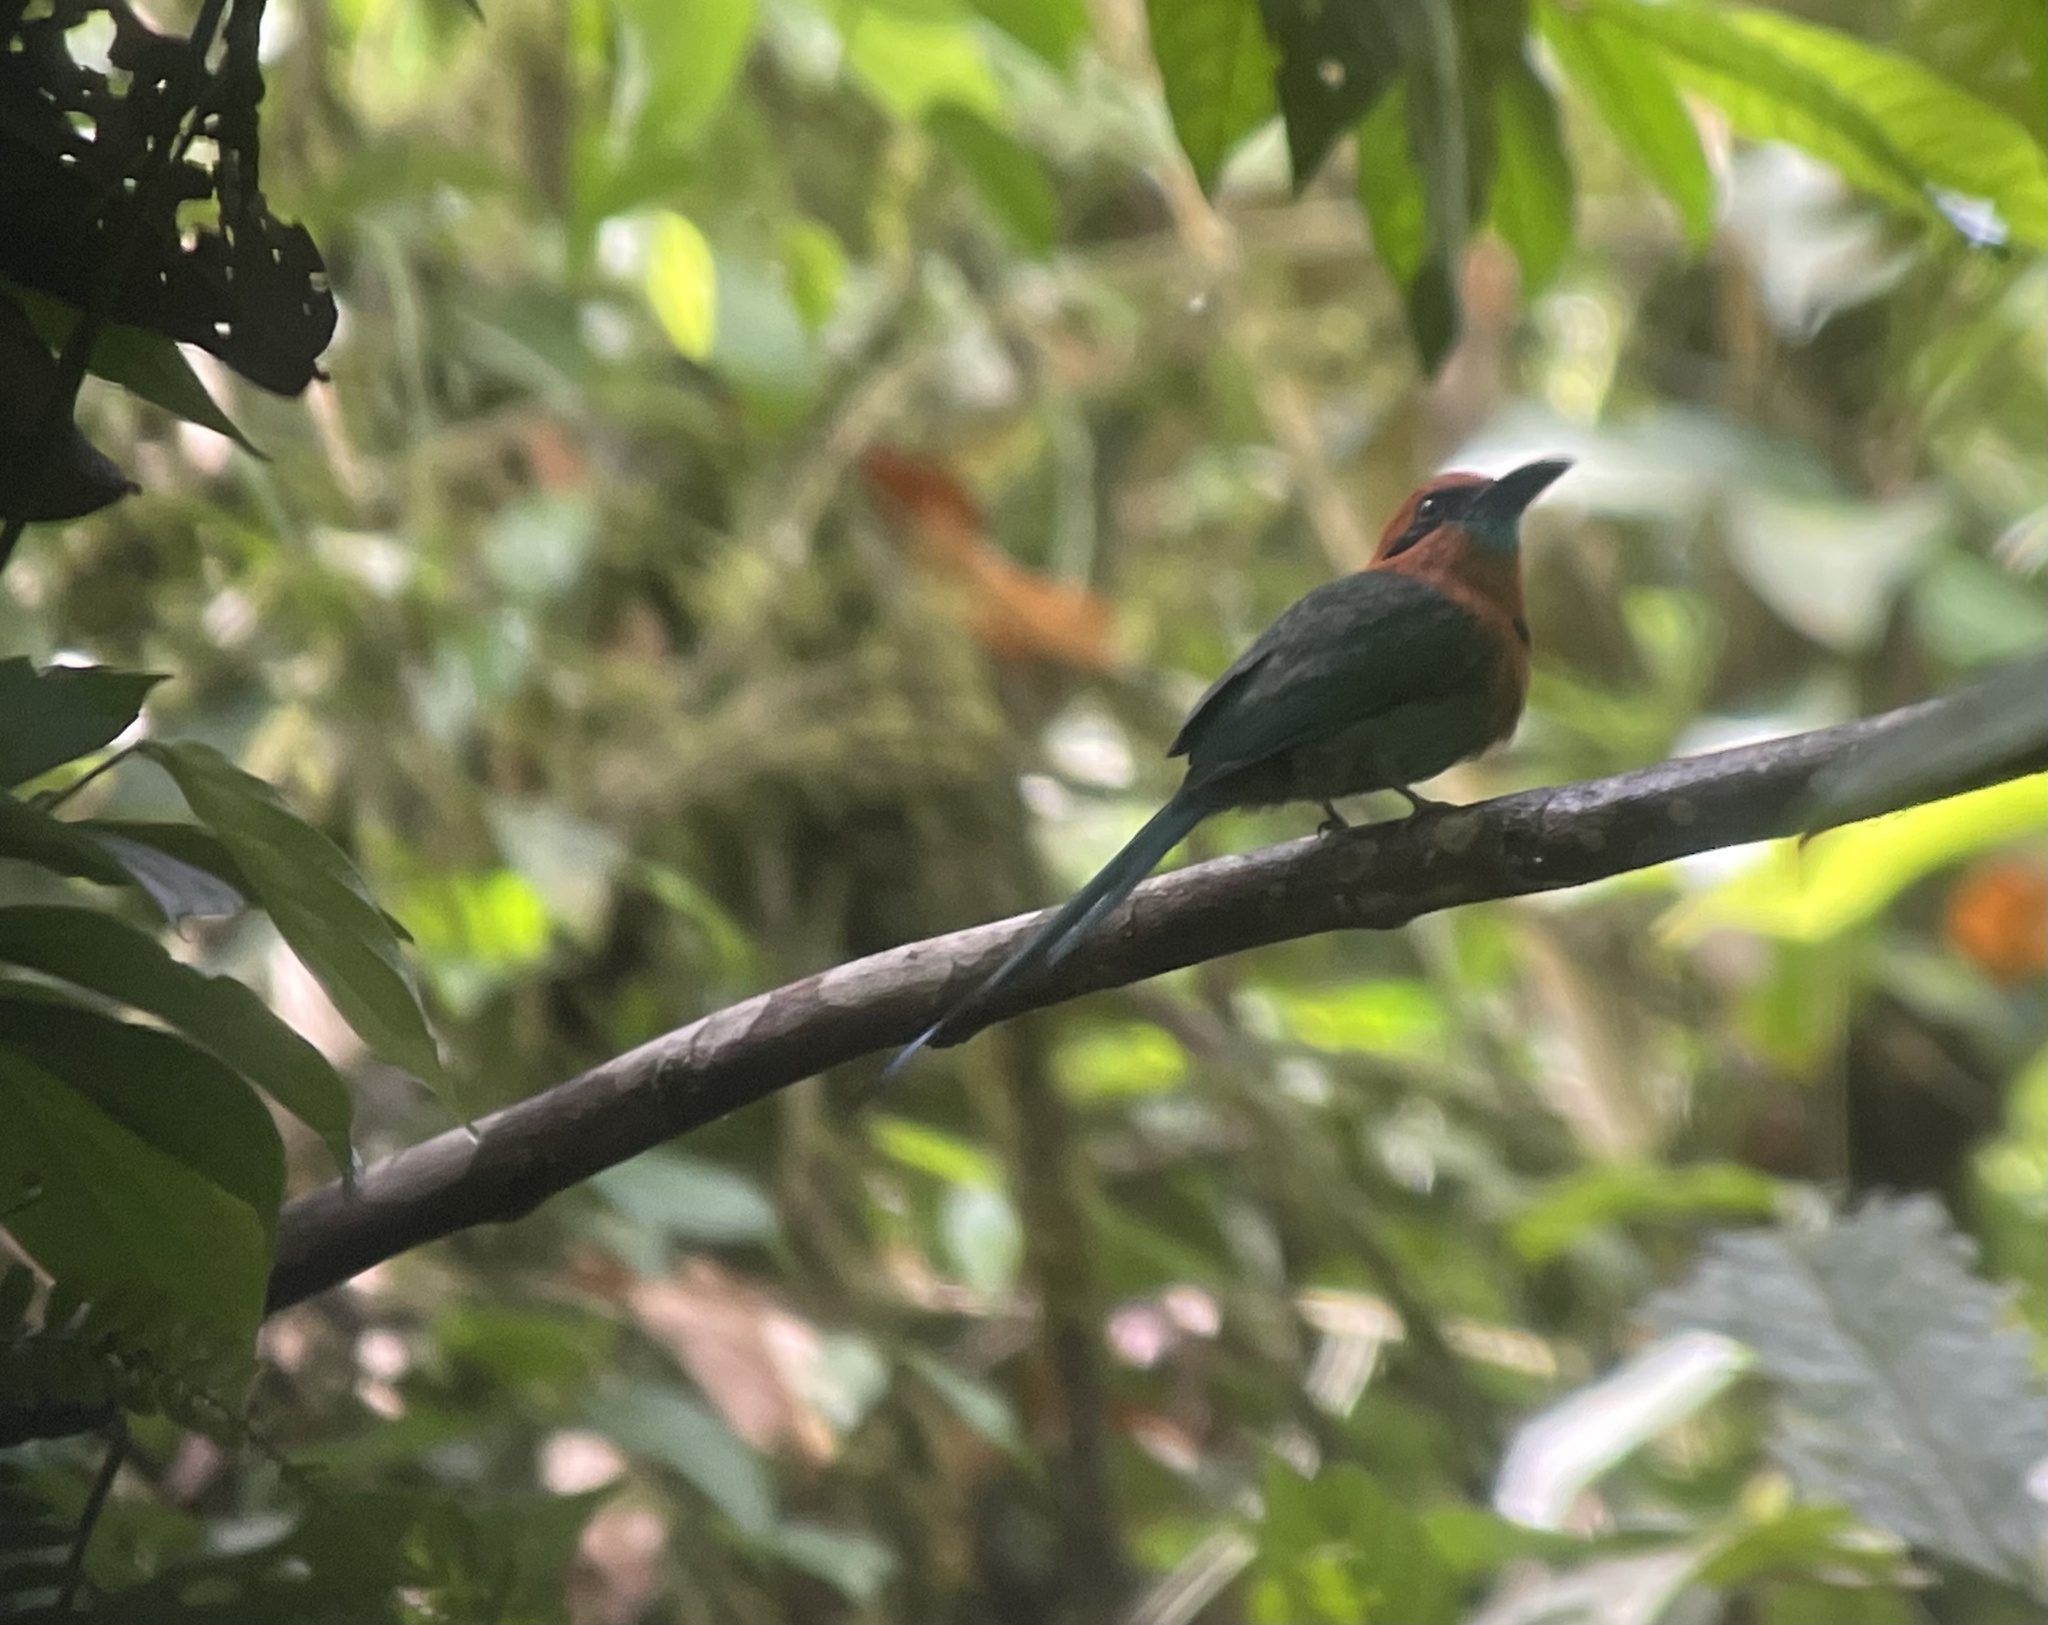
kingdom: Animalia
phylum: Chordata
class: Aves
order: Coraciiformes
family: Momotidae
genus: Electron
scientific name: Electron platyrhynchum
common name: Broad-billed motmot
